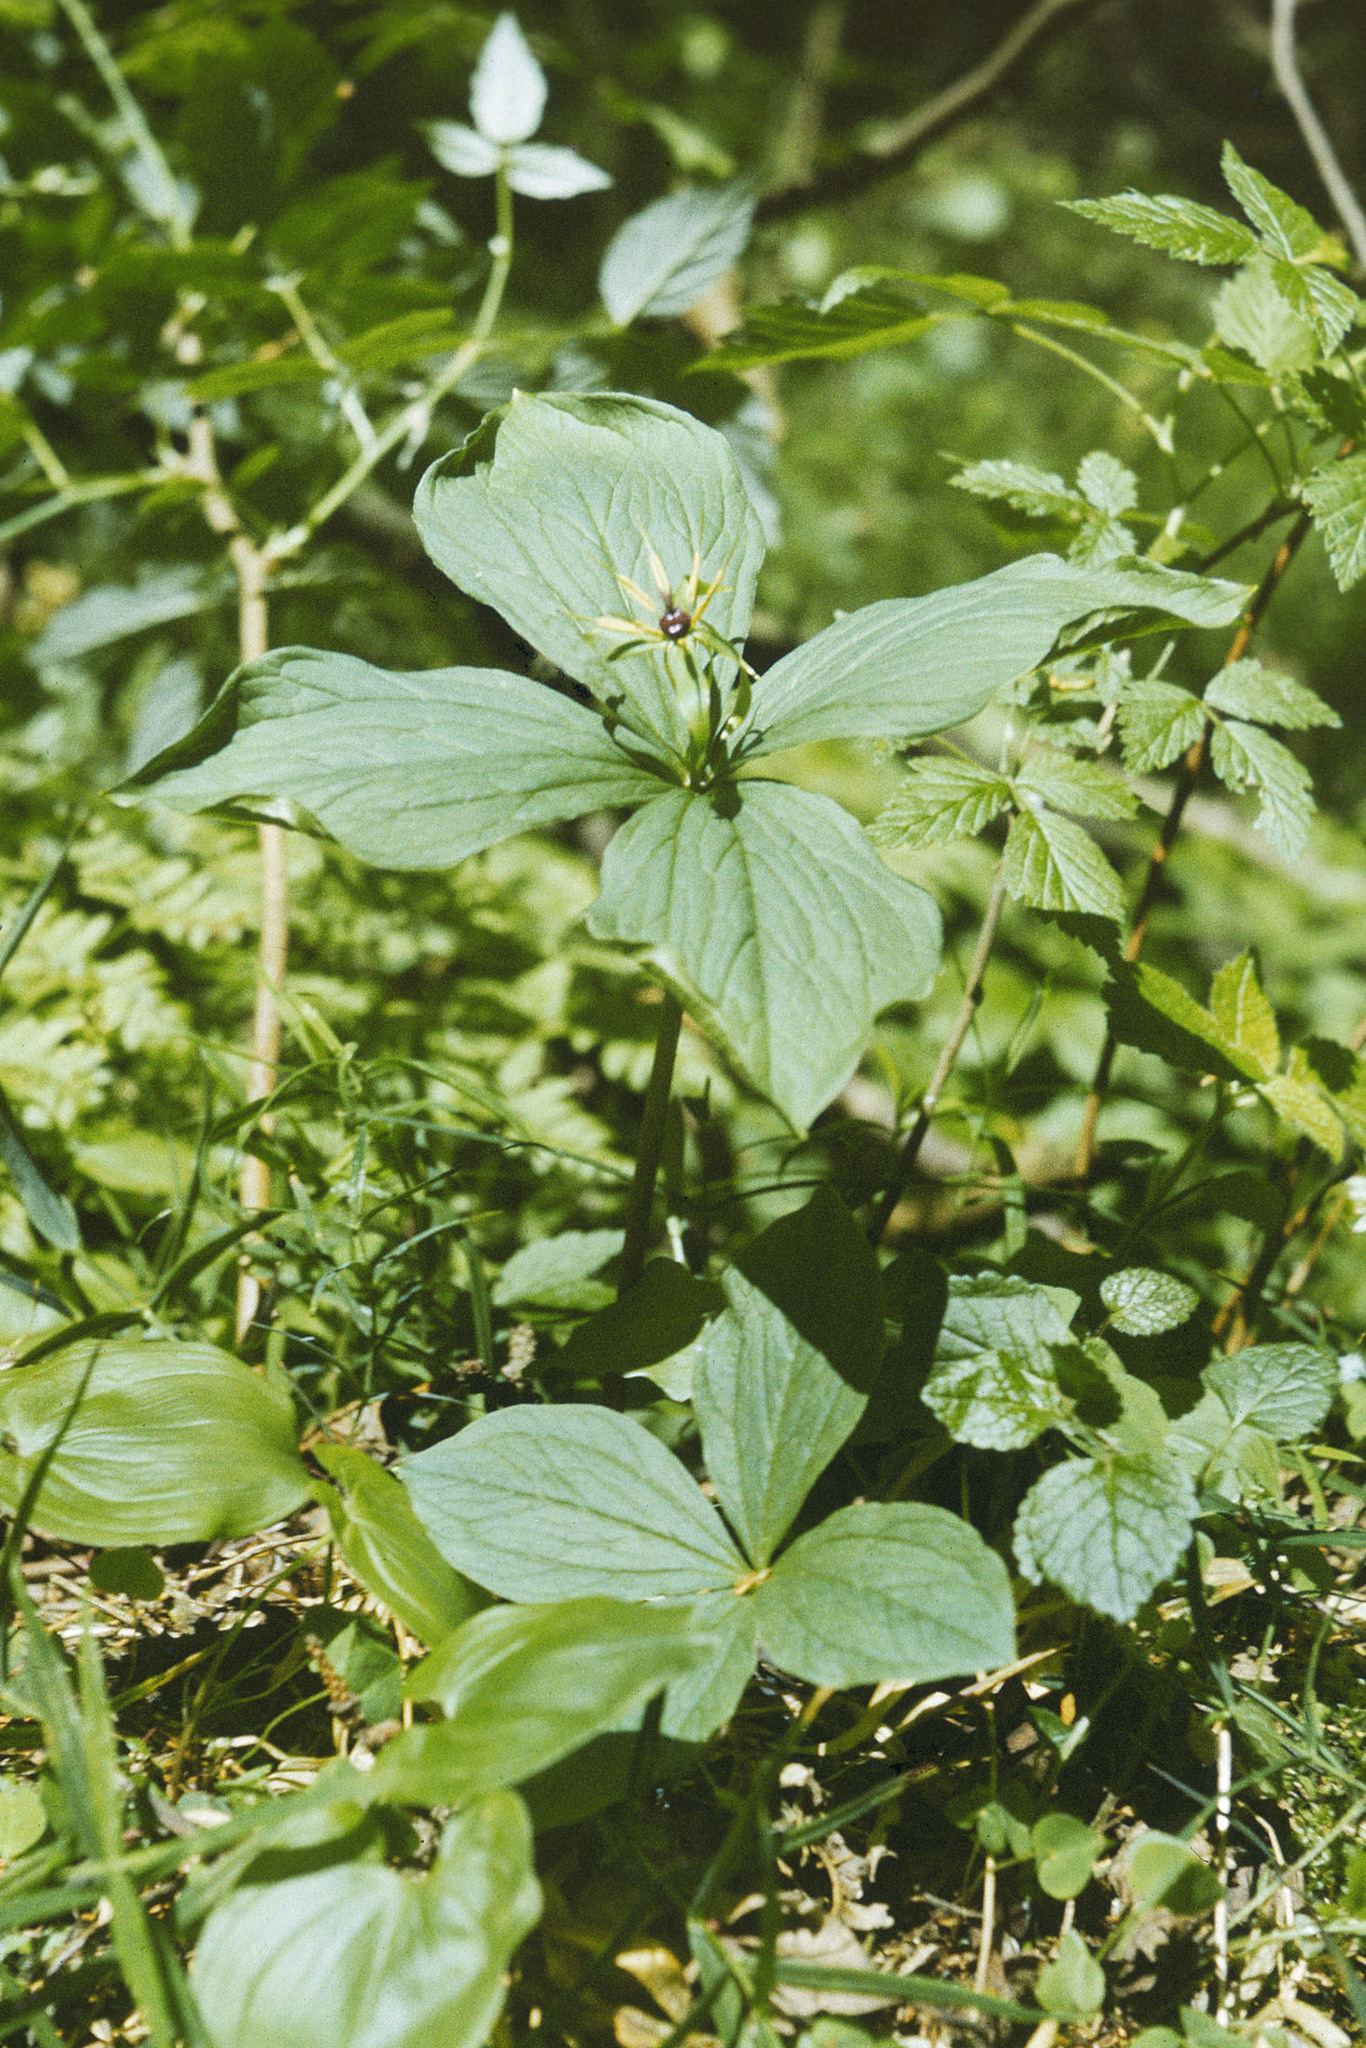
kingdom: Plantae
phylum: Tracheophyta
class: Liliopsida
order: Liliales
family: Melanthiaceae
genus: Paris
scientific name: Paris quadrifolia
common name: Herb-paris
